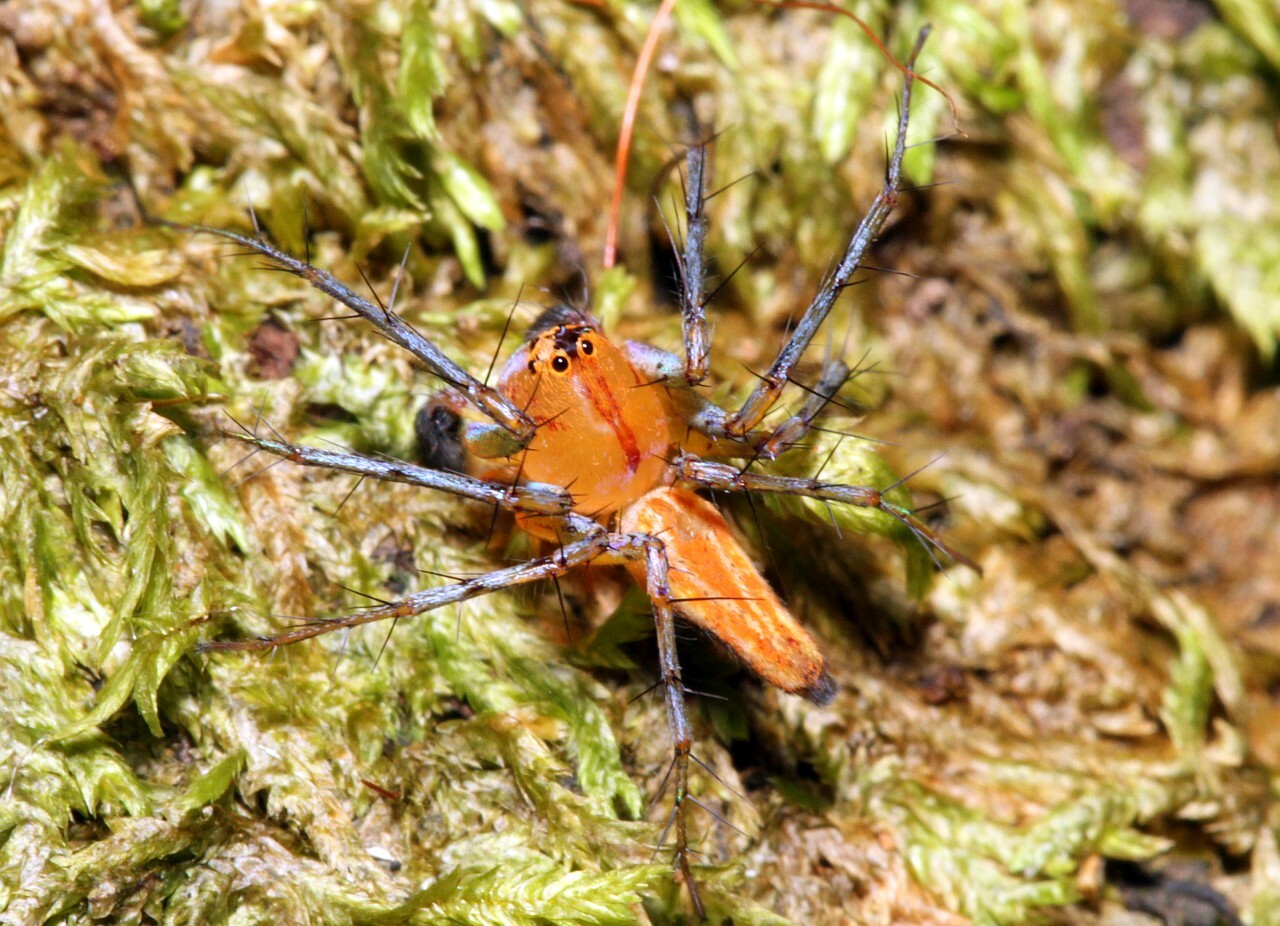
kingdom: Animalia
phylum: Arthropoda
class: Arachnida
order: Araneae
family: Oxyopidae
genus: Oxyopes
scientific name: Oxyopes incertus
